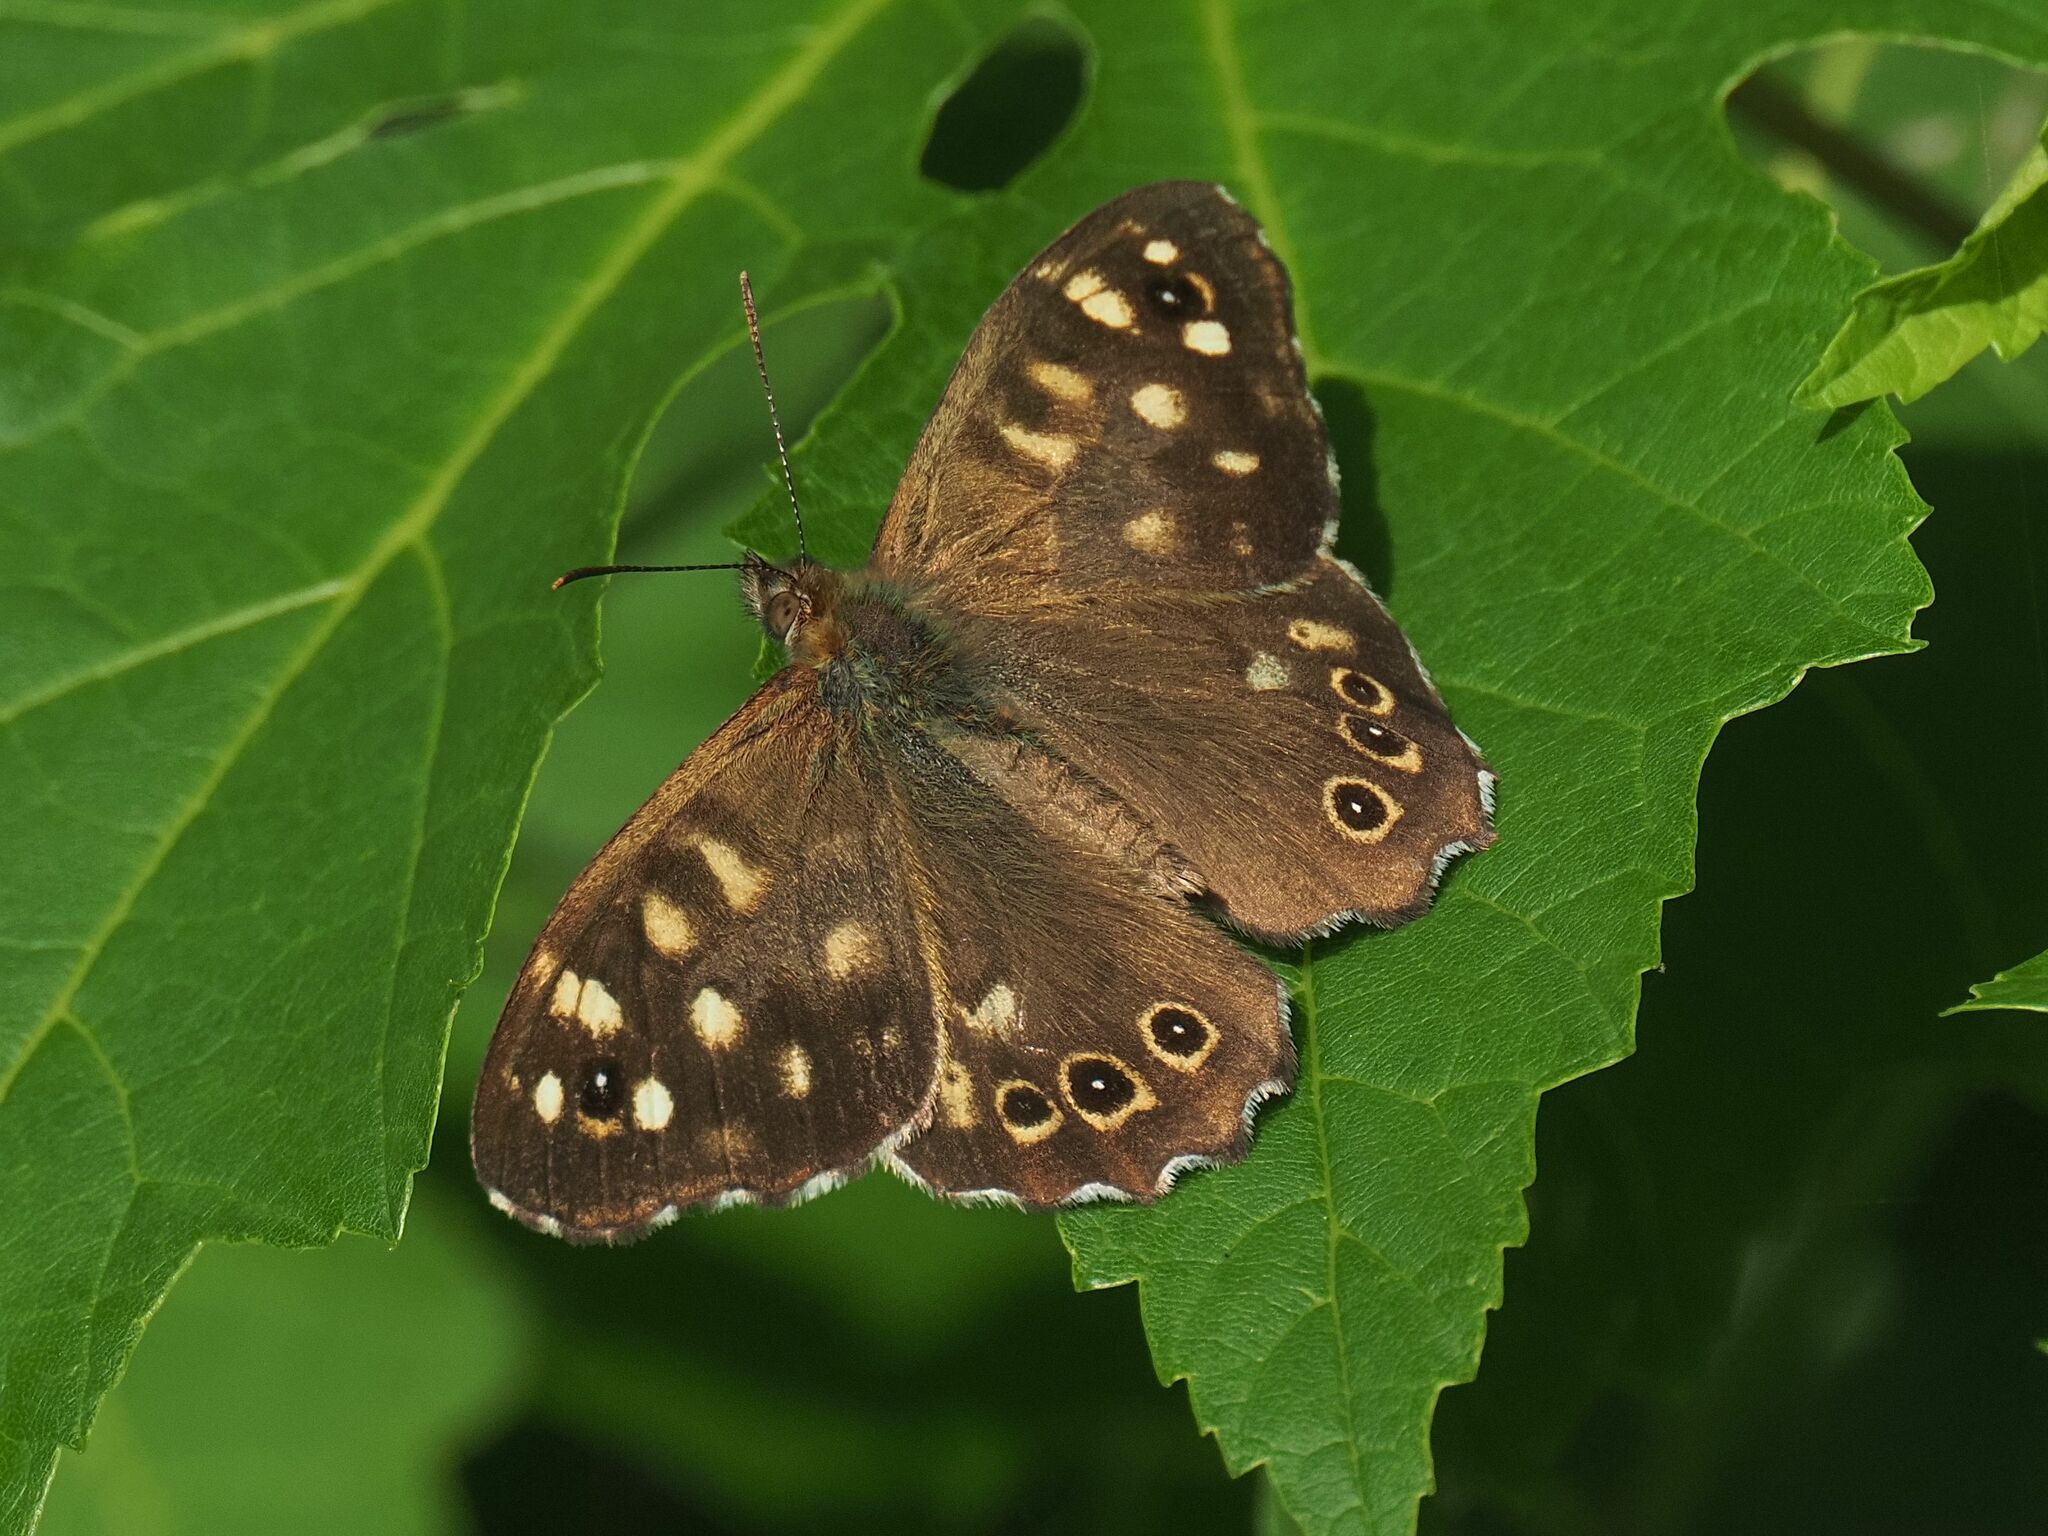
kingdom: Animalia
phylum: Arthropoda
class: Insecta
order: Lepidoptera
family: Nymphalidae
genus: Pararge
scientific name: Pararge aegeria
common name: Speckled wood
